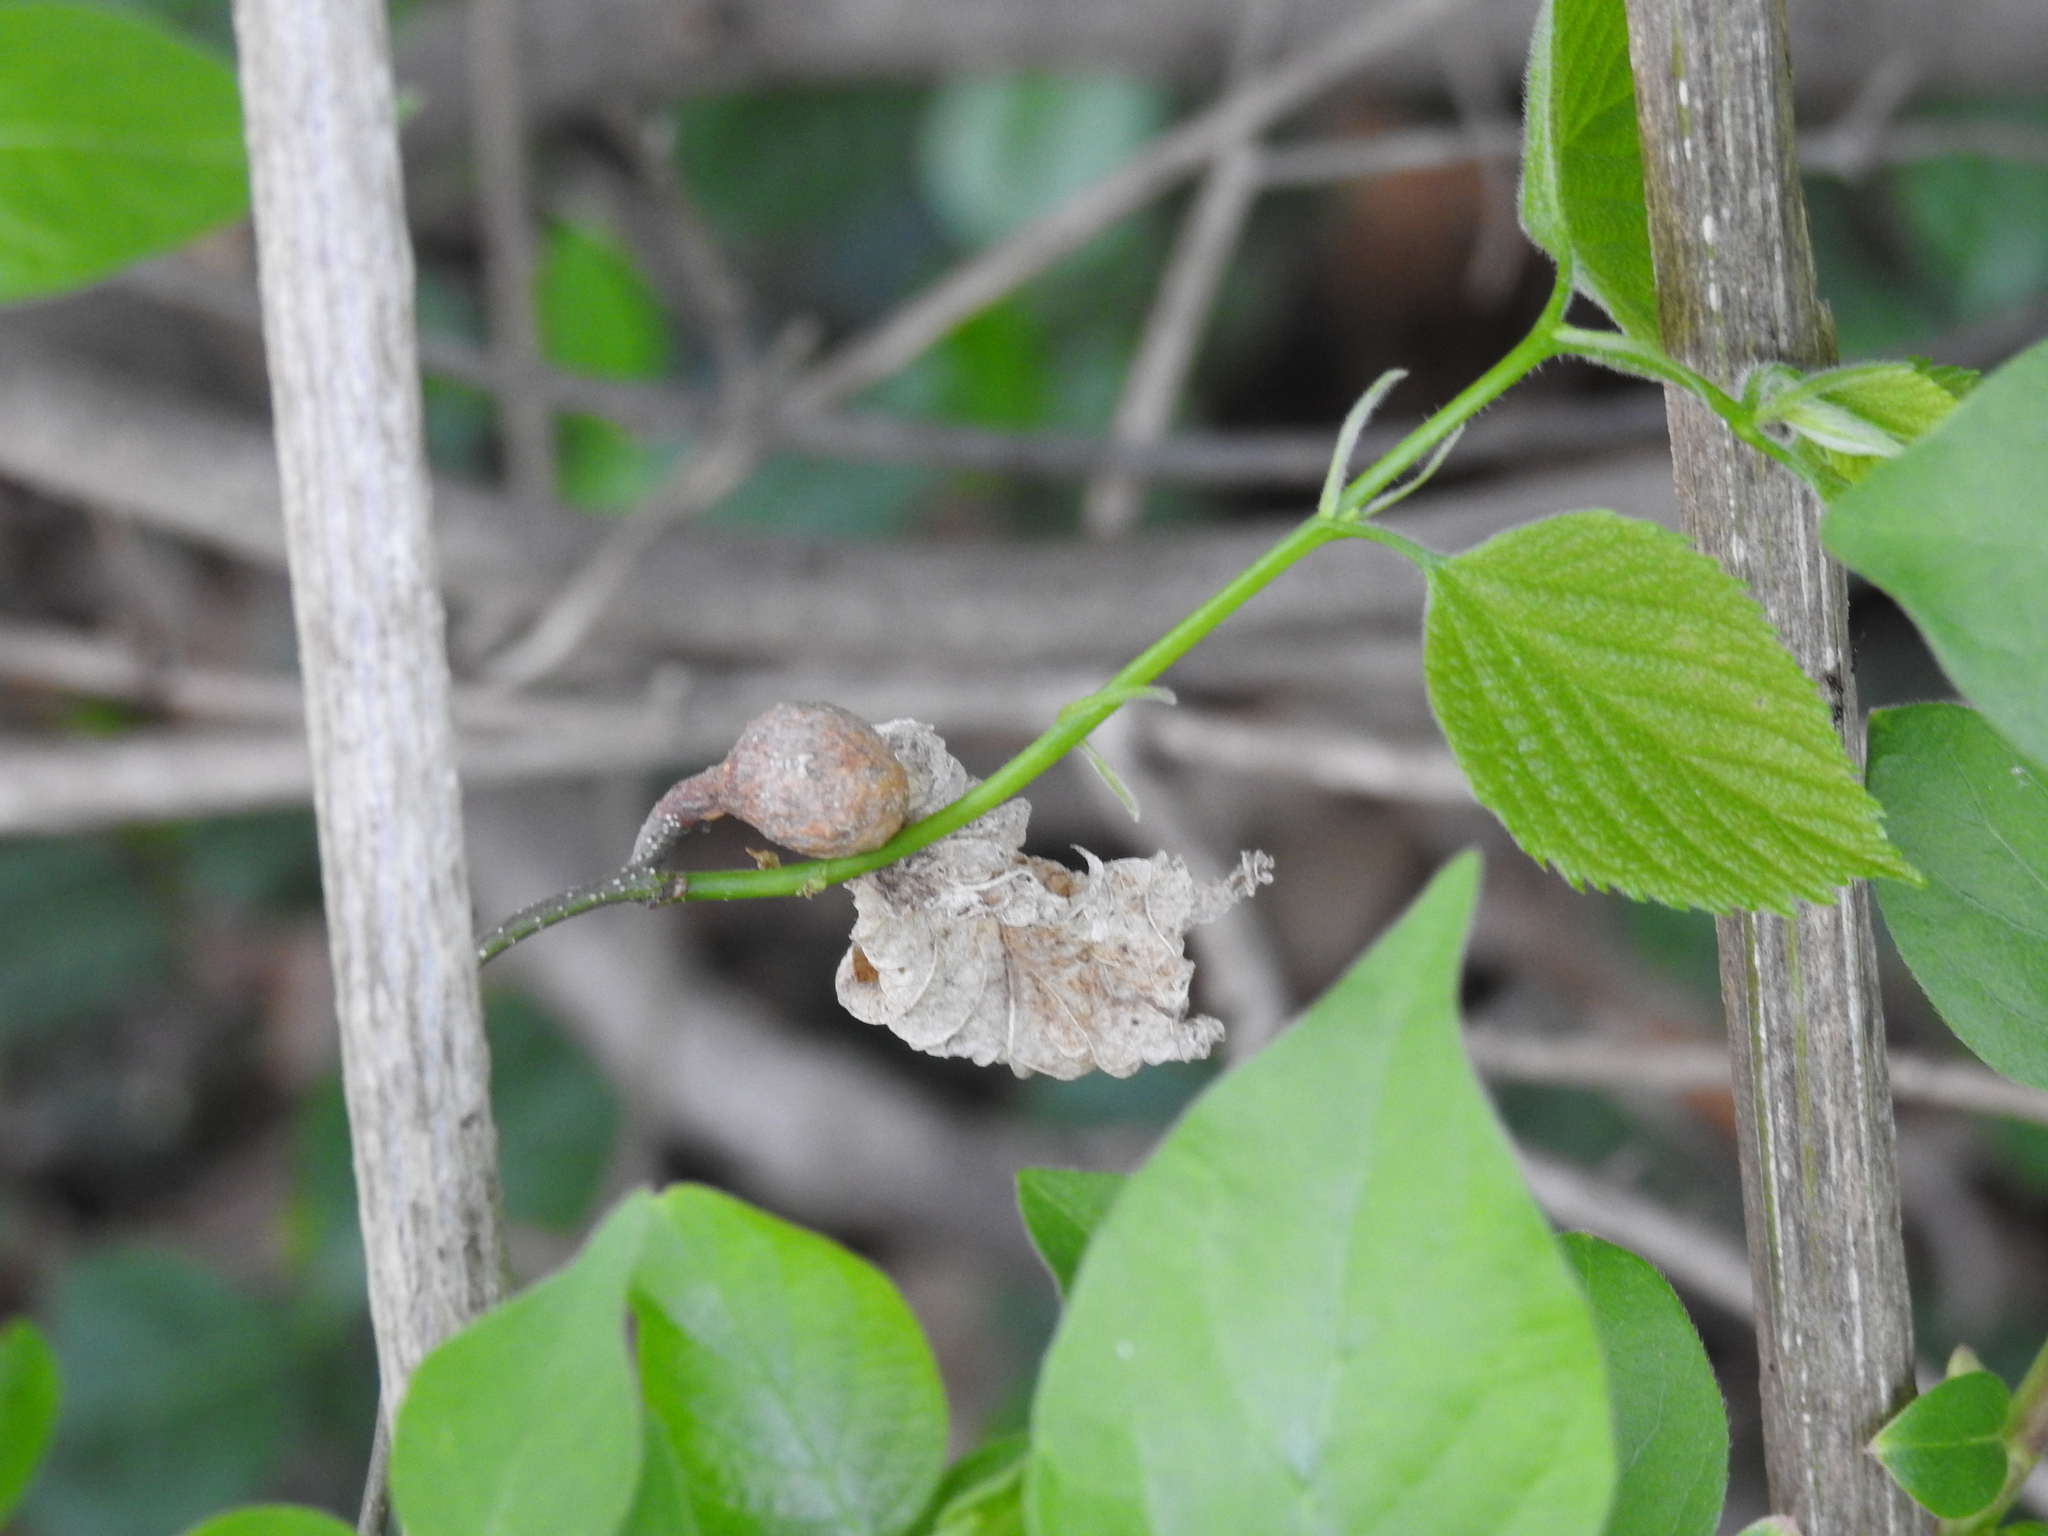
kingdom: Animalia
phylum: Arthropoda
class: Insecta
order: Hemiptera
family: Aphalaridae
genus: Pachypsylla
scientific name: Pachypsylla venusta
